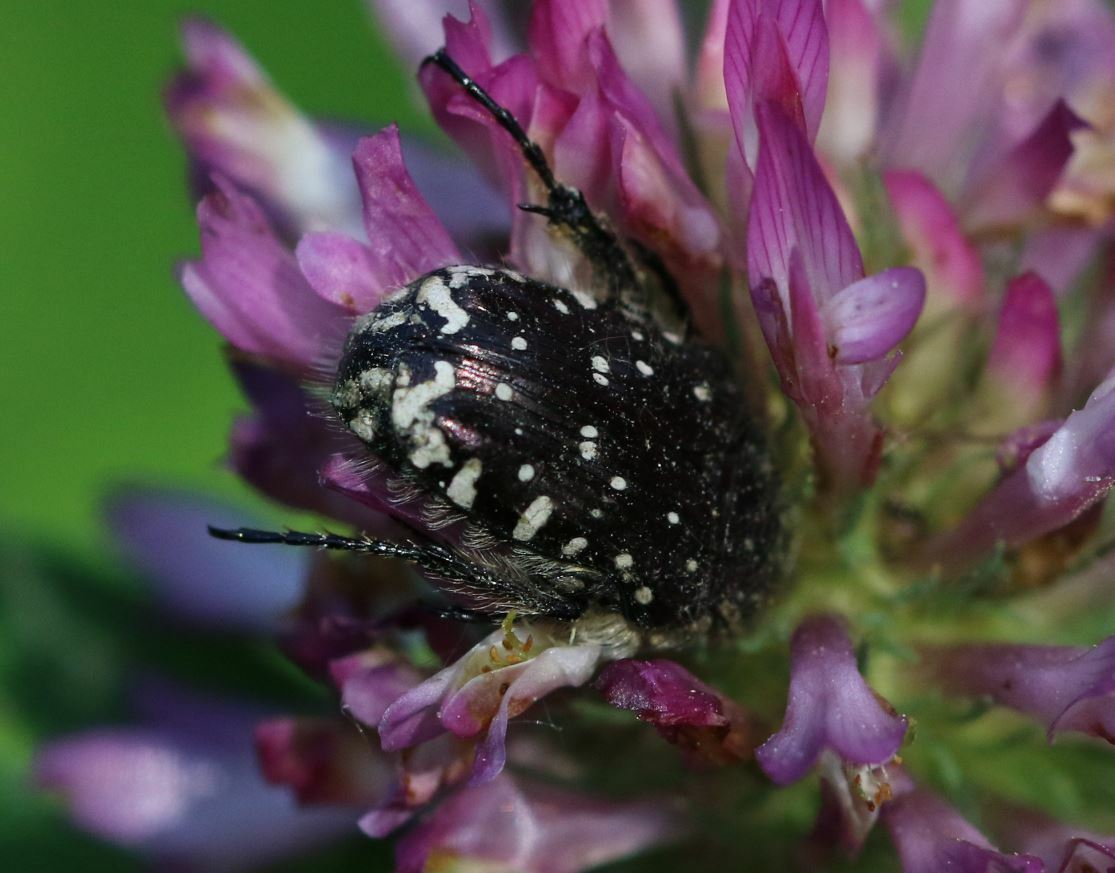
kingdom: Animalia
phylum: Arthropoda
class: Insecta
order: Coleoptera
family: Scarabaeidae
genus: Oxythyrea
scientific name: Oxythyrea funesta
